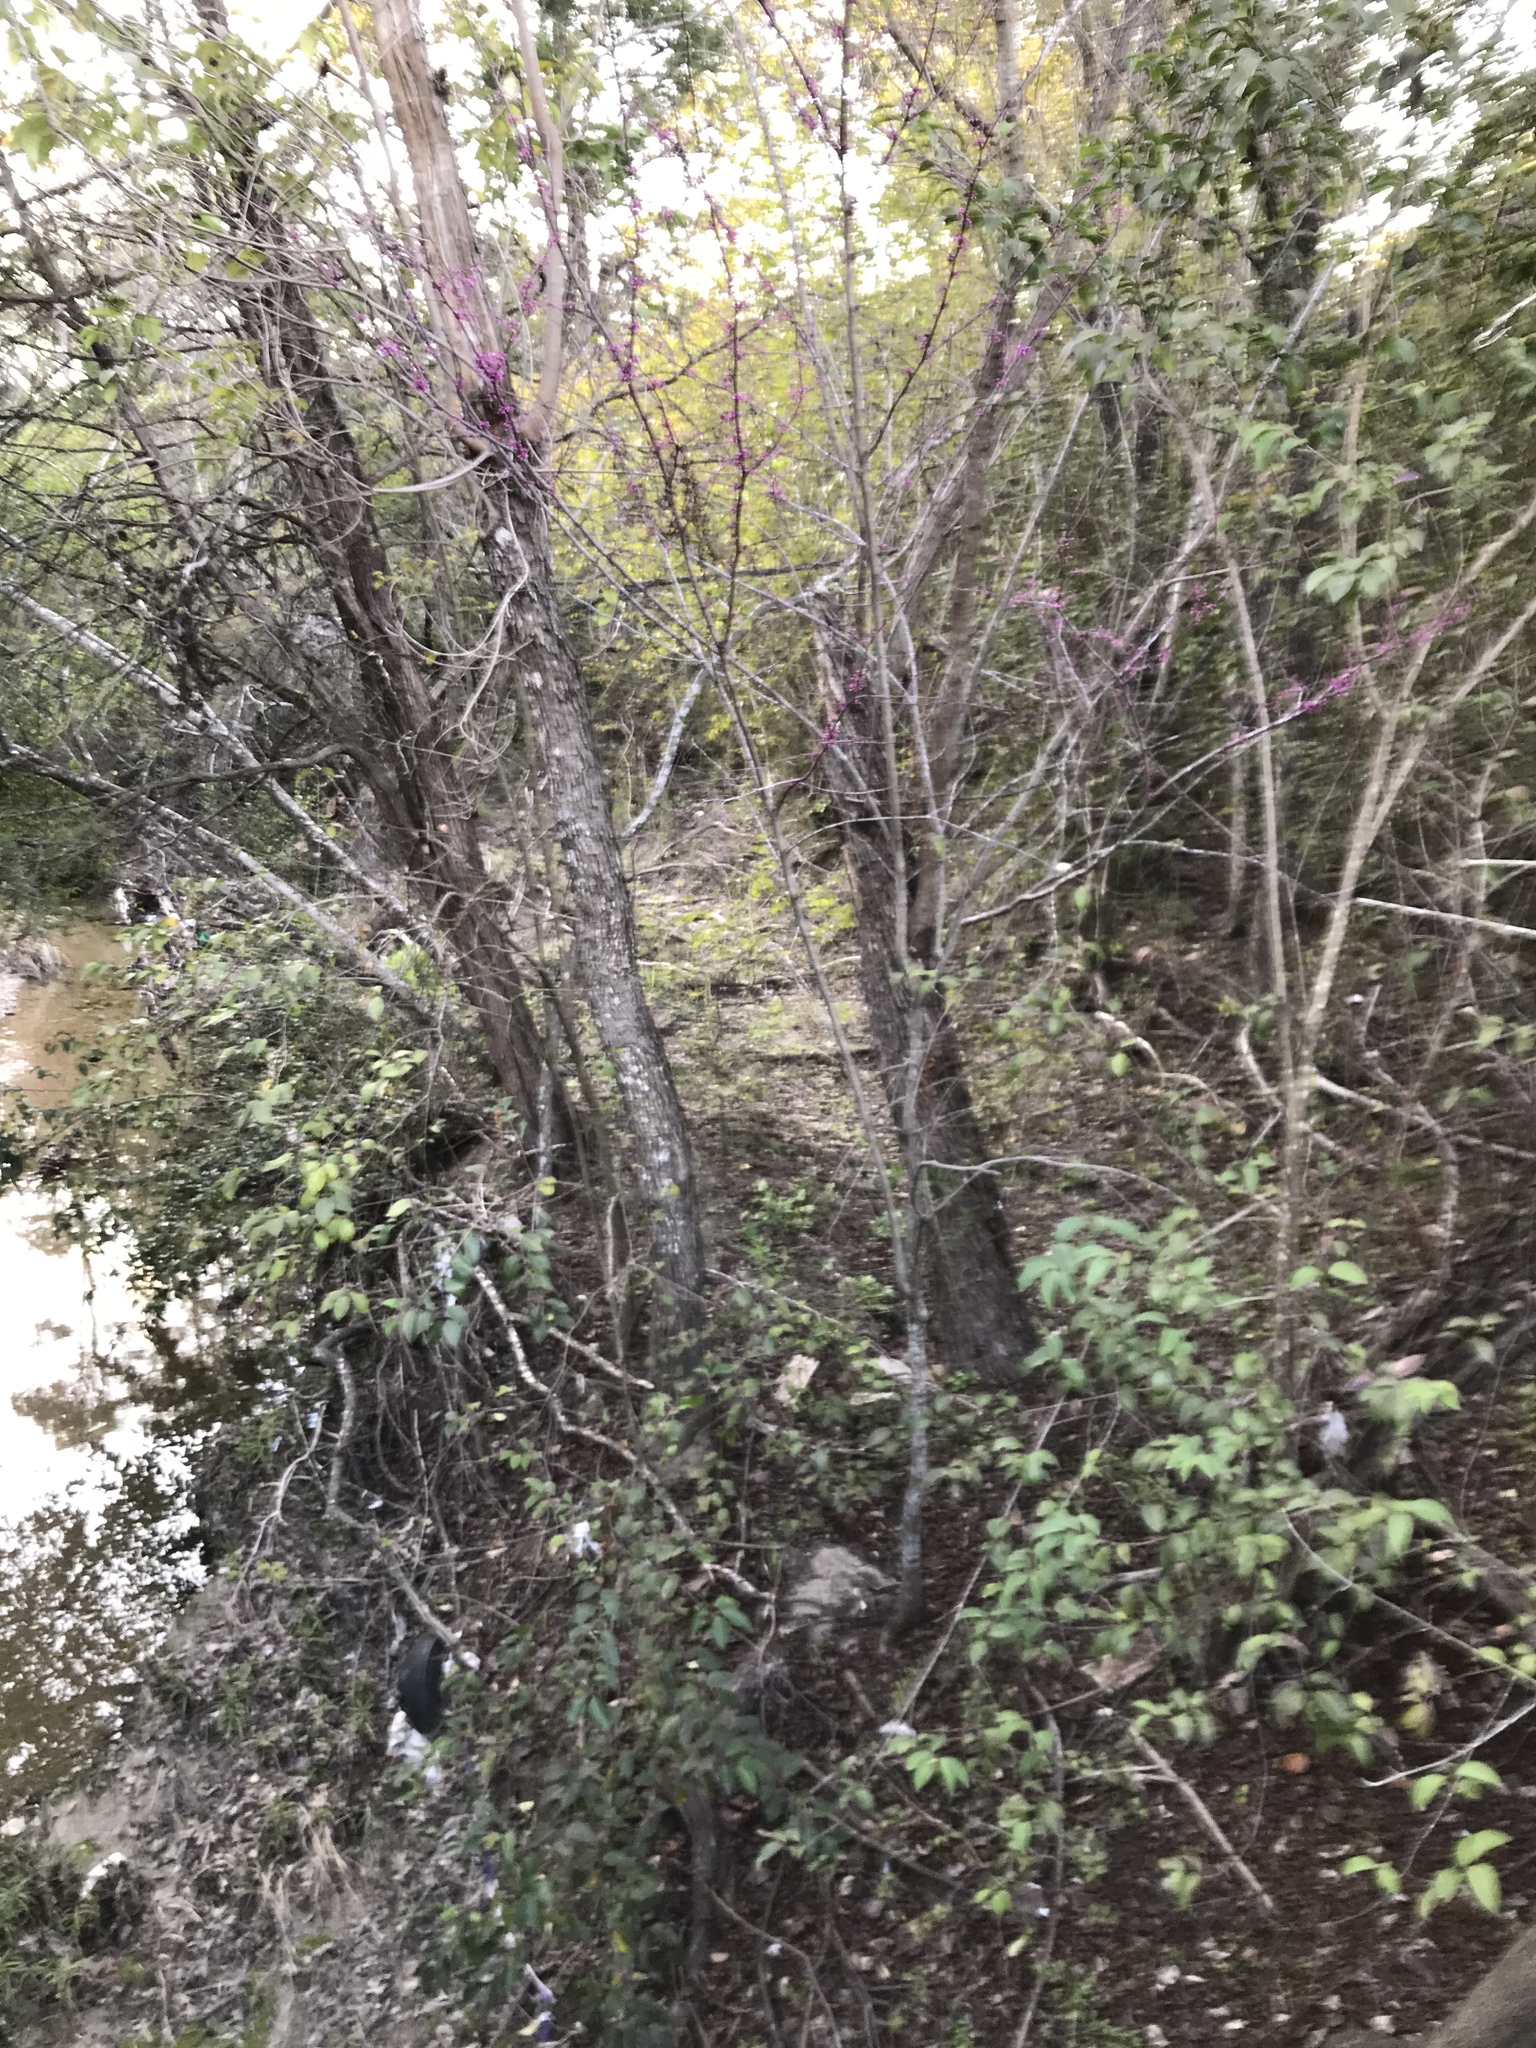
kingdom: Plantae
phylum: Tracheophyta
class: Magnoliopsida
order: Fabales
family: Fabaceae
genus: Cercis
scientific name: Cercis canadensis
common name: Eastern redbud
